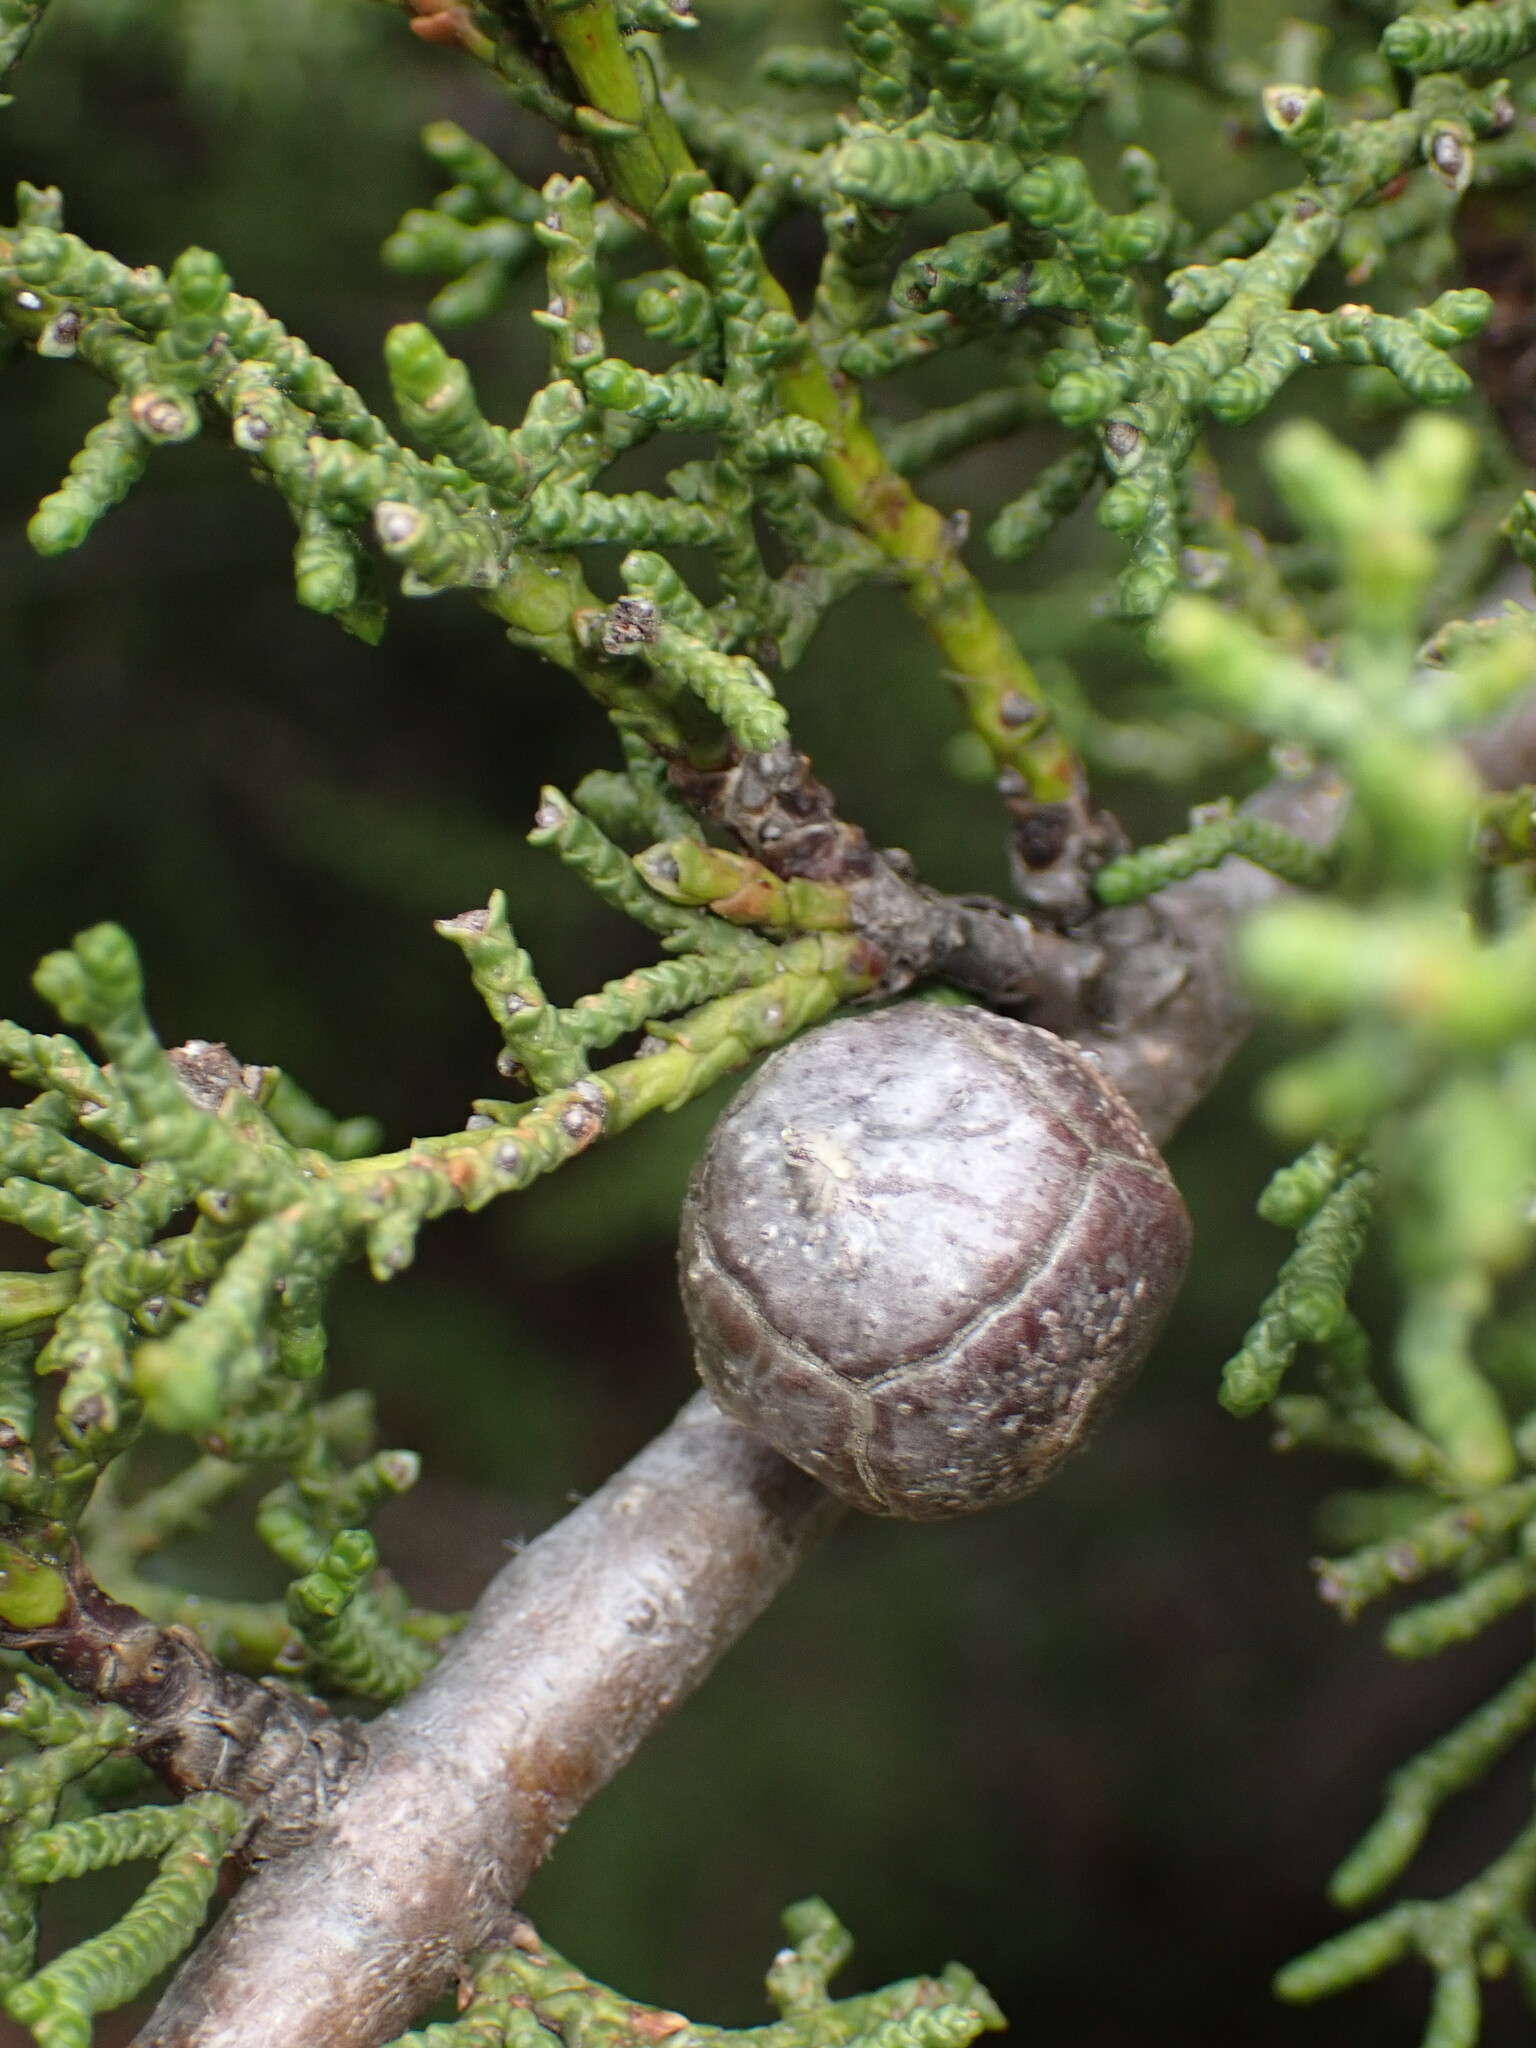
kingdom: Plantae
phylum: Tracheophyta
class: Pinopsida
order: Pinales
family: Cupressaceae
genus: Cupressus
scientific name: Cupressus goveniana
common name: Gowen cypress
